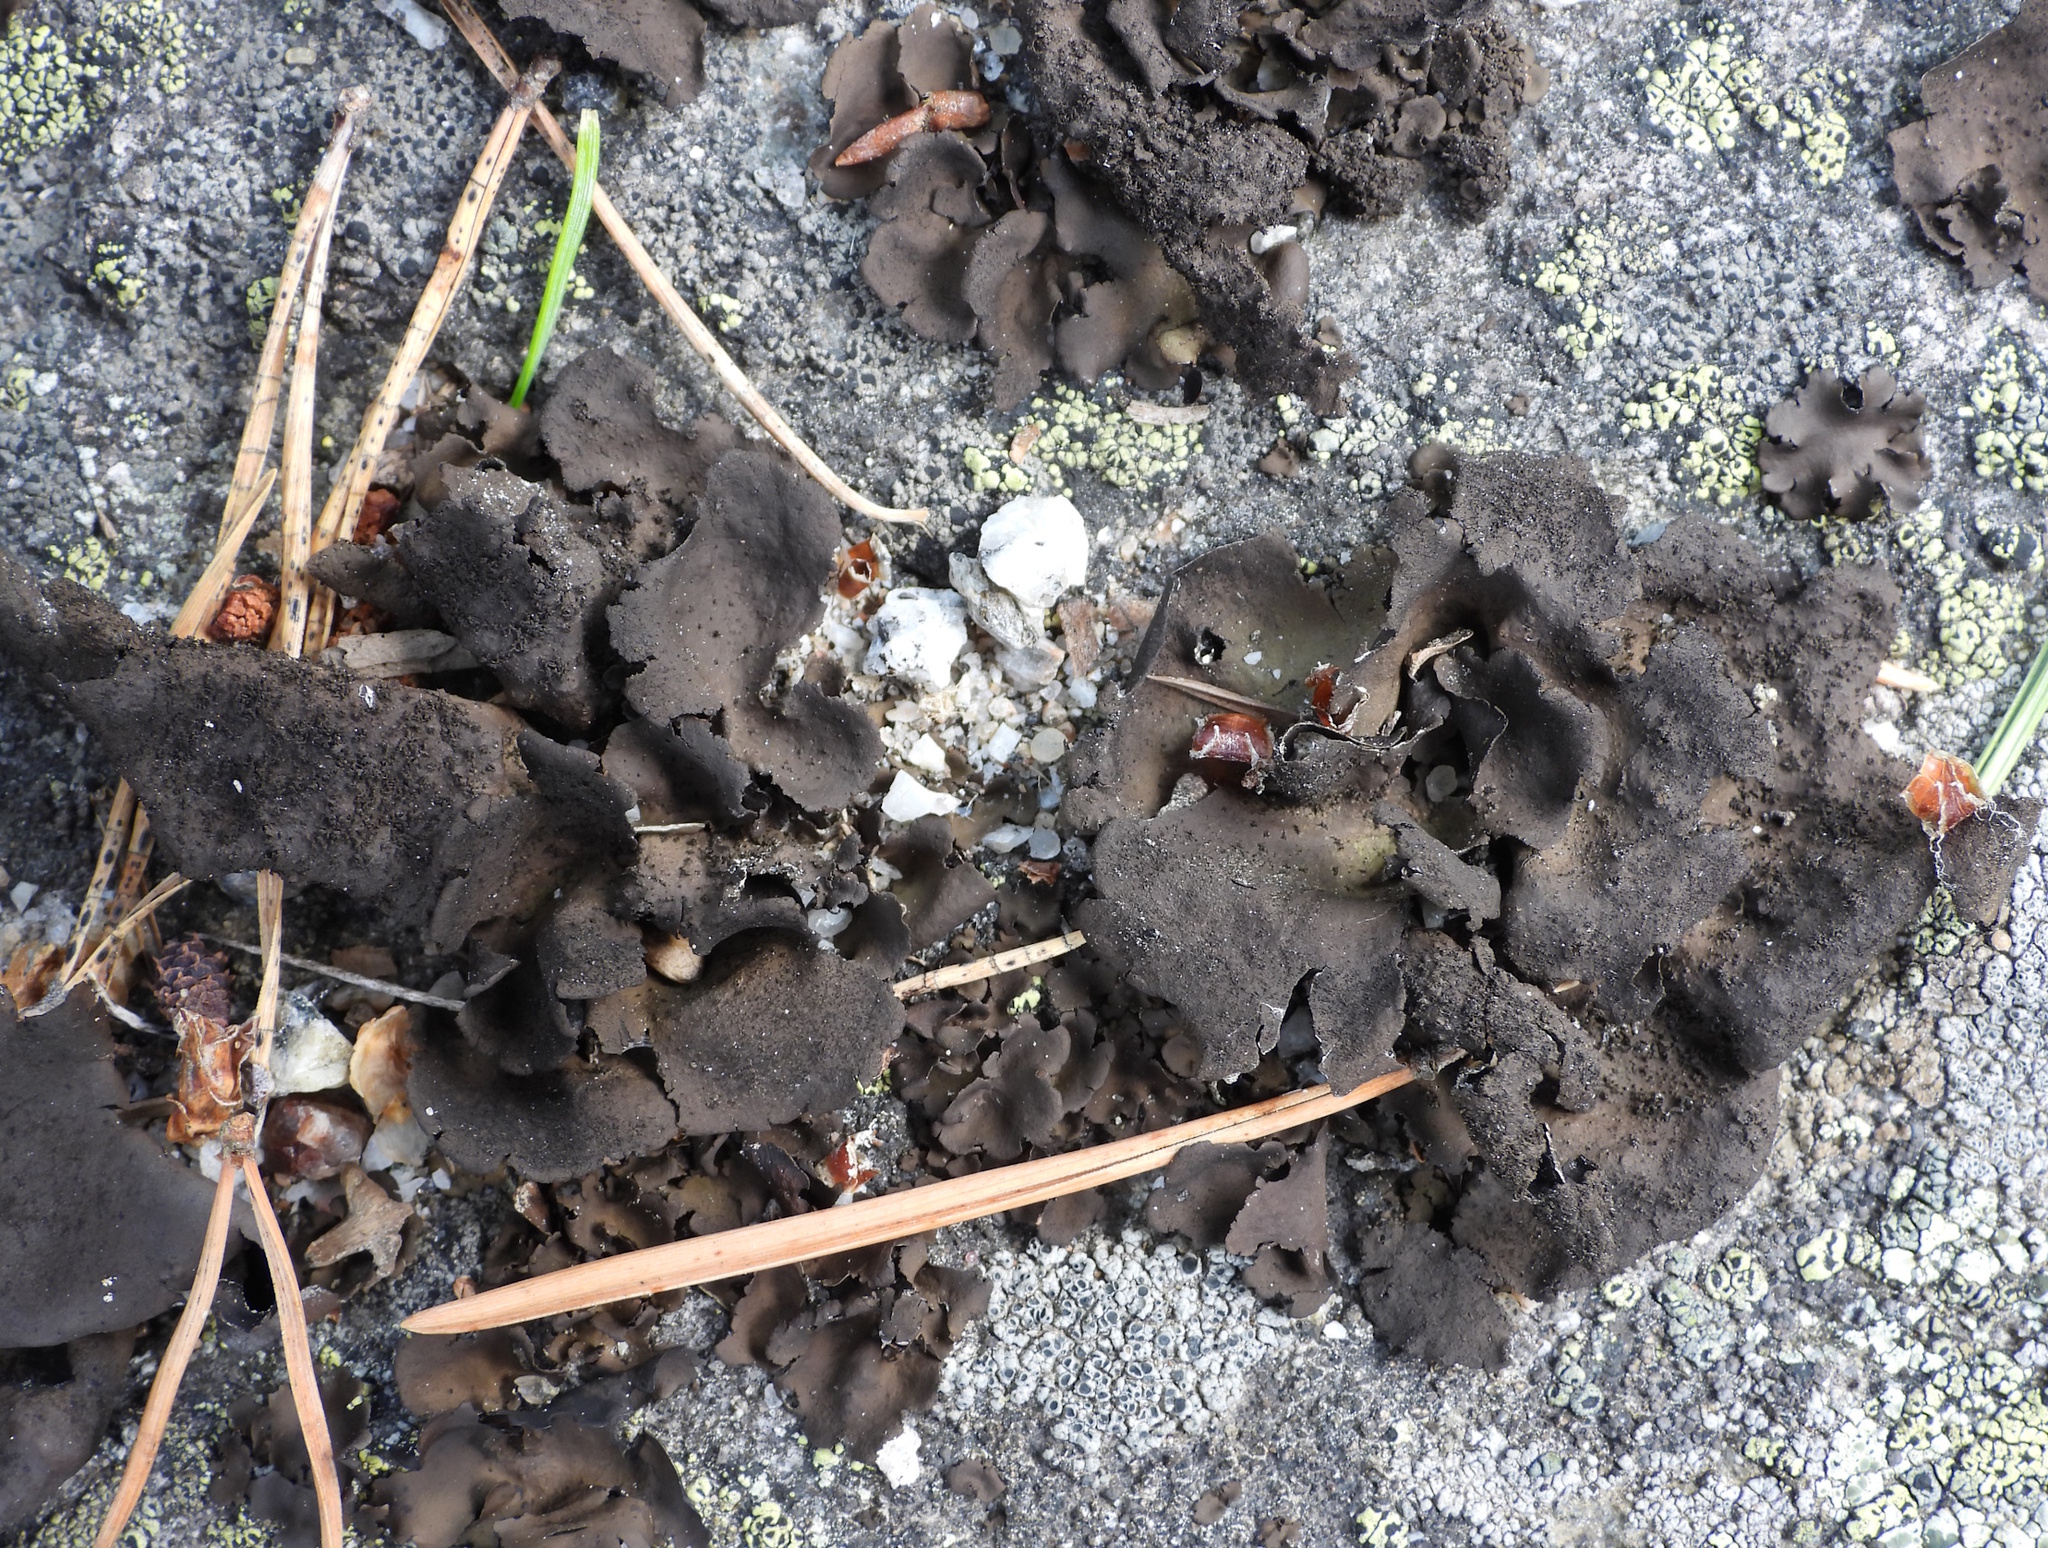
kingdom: Fungi
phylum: Ascomycota
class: Lecanoromycetes
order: Umbilicariales
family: Umbilicariaceae
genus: Umbilicaria
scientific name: Umbilicaria deusta
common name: Peppered rock tripe
